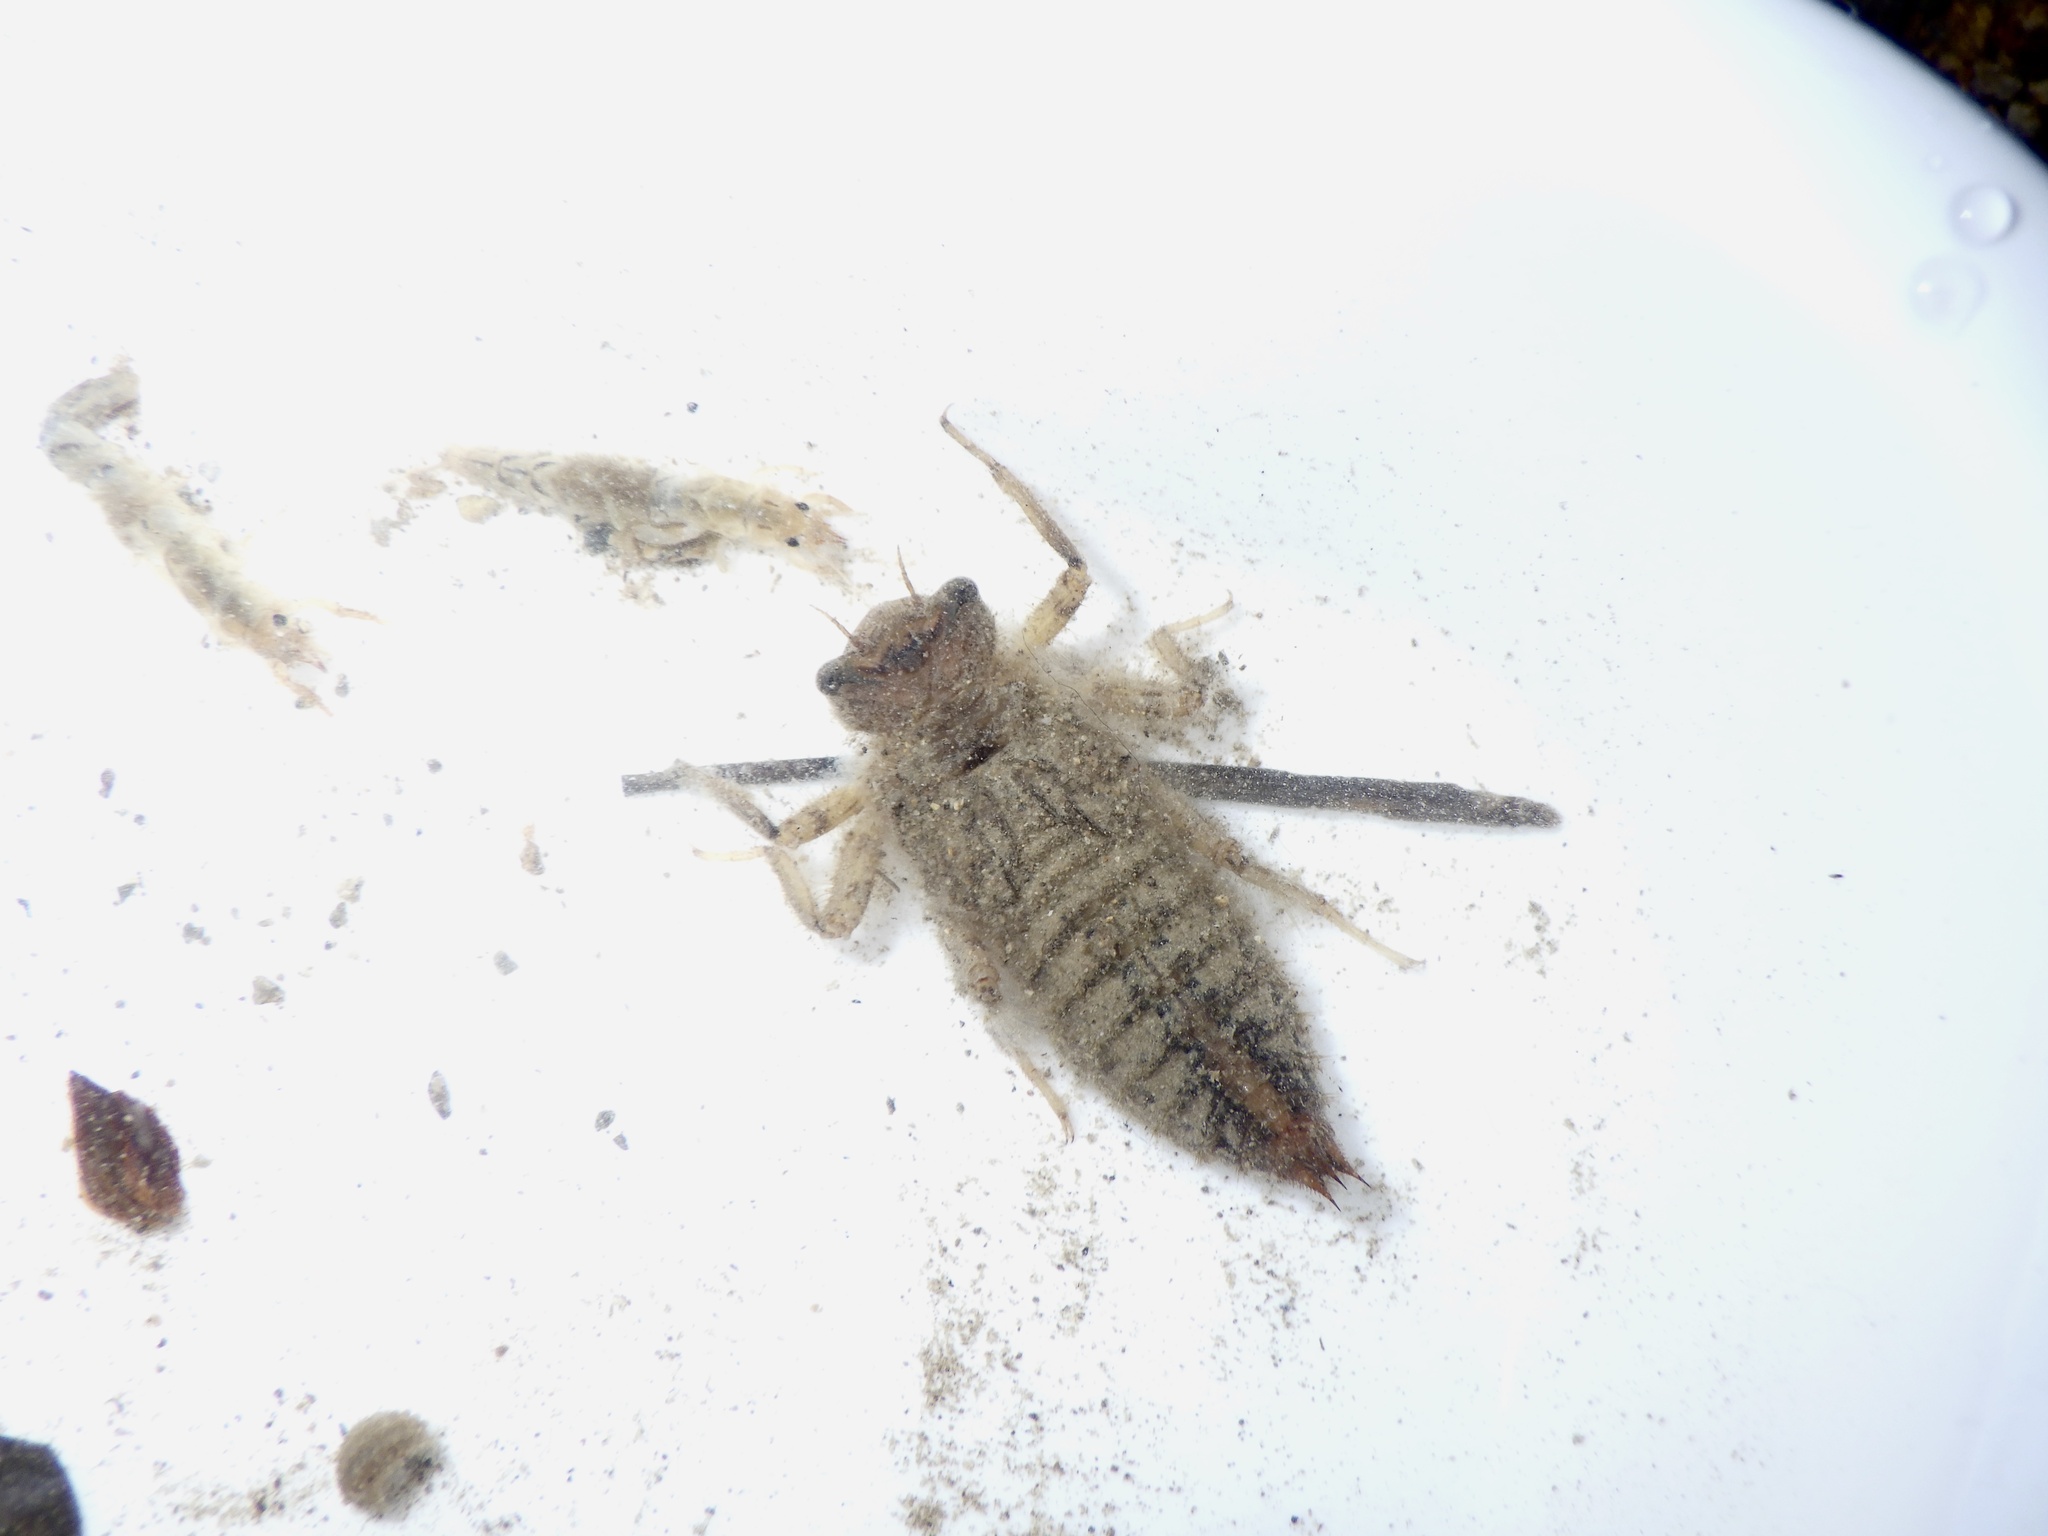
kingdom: Animalia
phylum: Arthropoda
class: Insecta
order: Odonata
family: Cordulegastridae
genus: Anotogaster
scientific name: Anotogaster sieboldii
